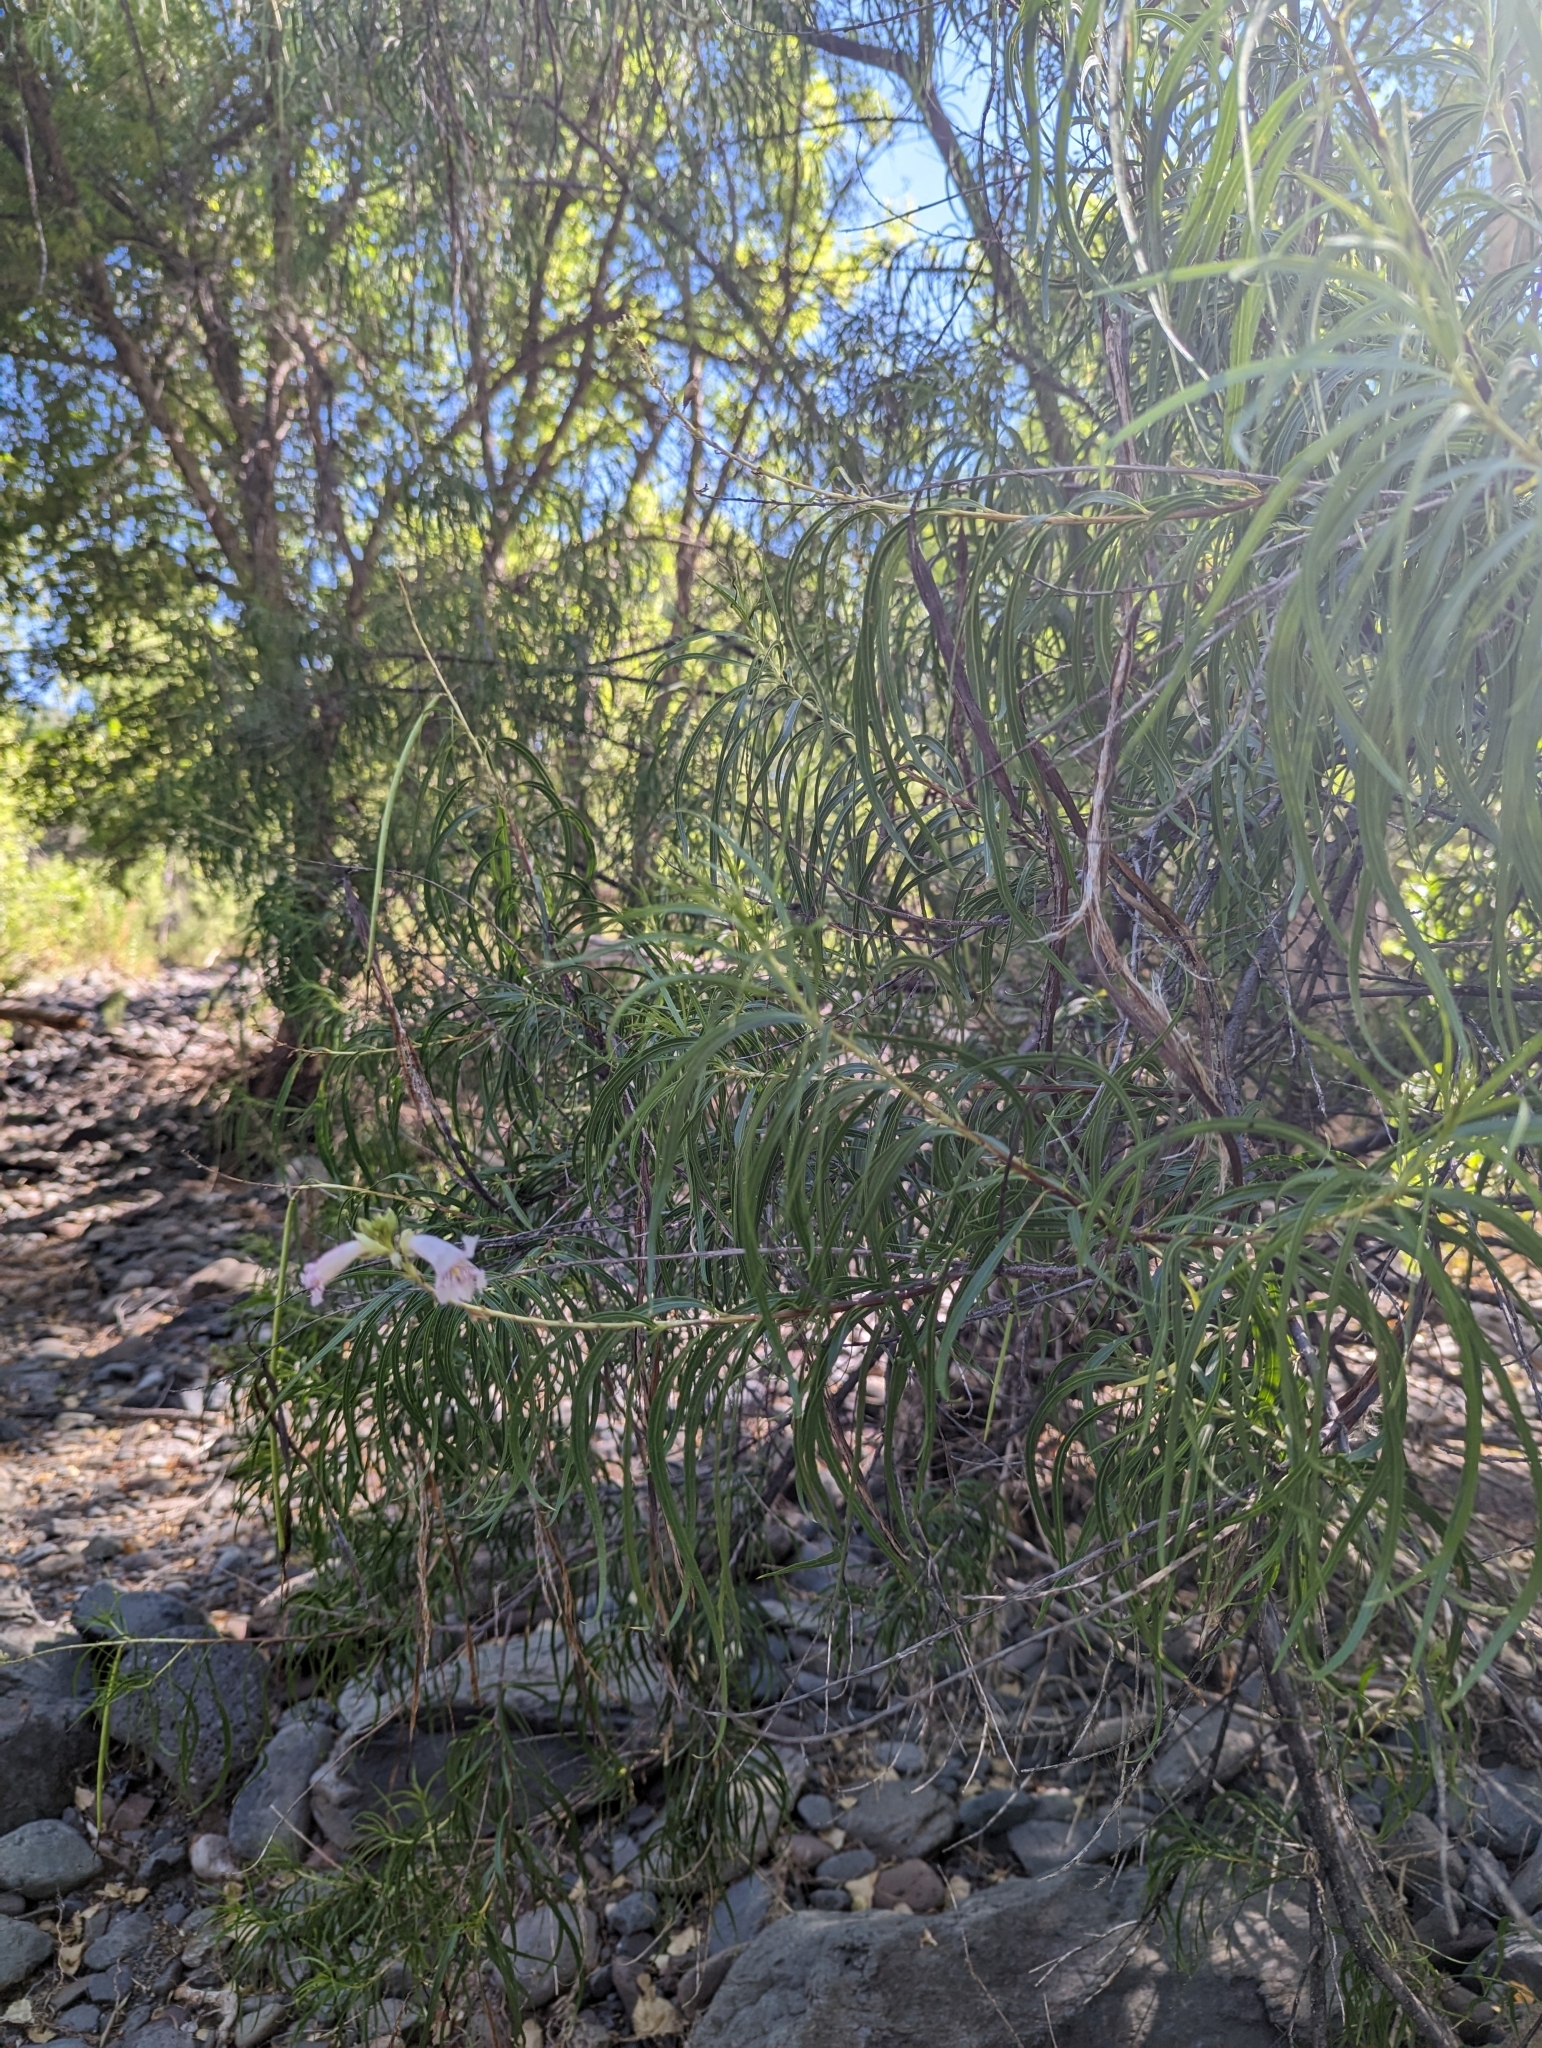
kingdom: Plantae
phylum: Tracheophyta
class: Magnoliopsida
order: Lamiales
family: Bignoniaceae
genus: Chilopsis
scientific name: Chilopsis linearis
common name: Desert-willow
